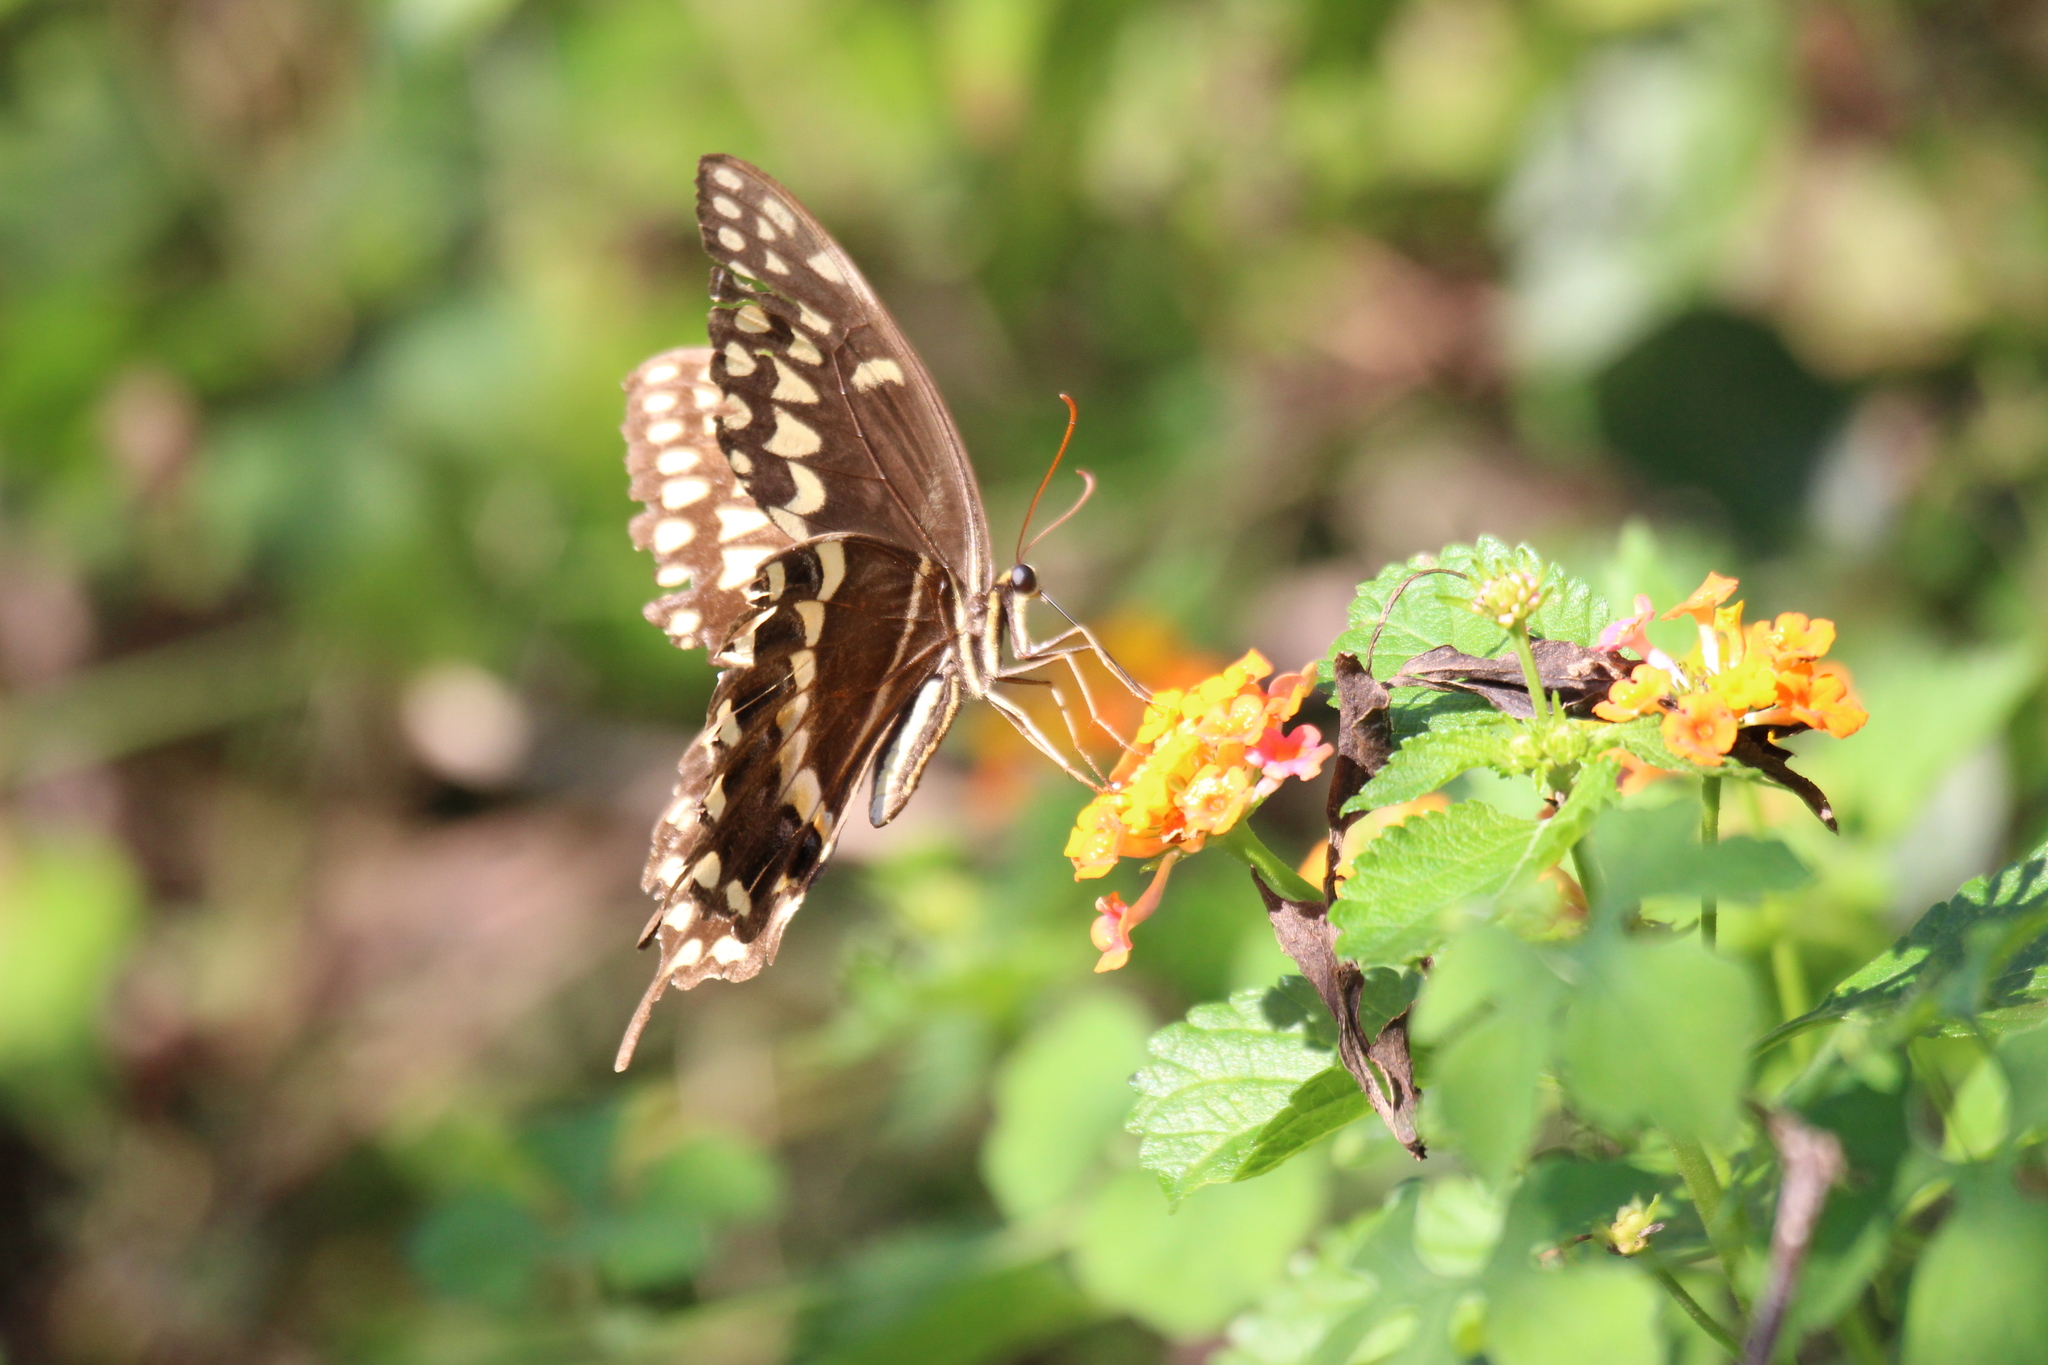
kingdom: Animalia
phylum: Arthropoda
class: Insecta
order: Lepidoptera
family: Papilionidae
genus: Papilio
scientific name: Papilio palamedes
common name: Palamedes swallowtail
